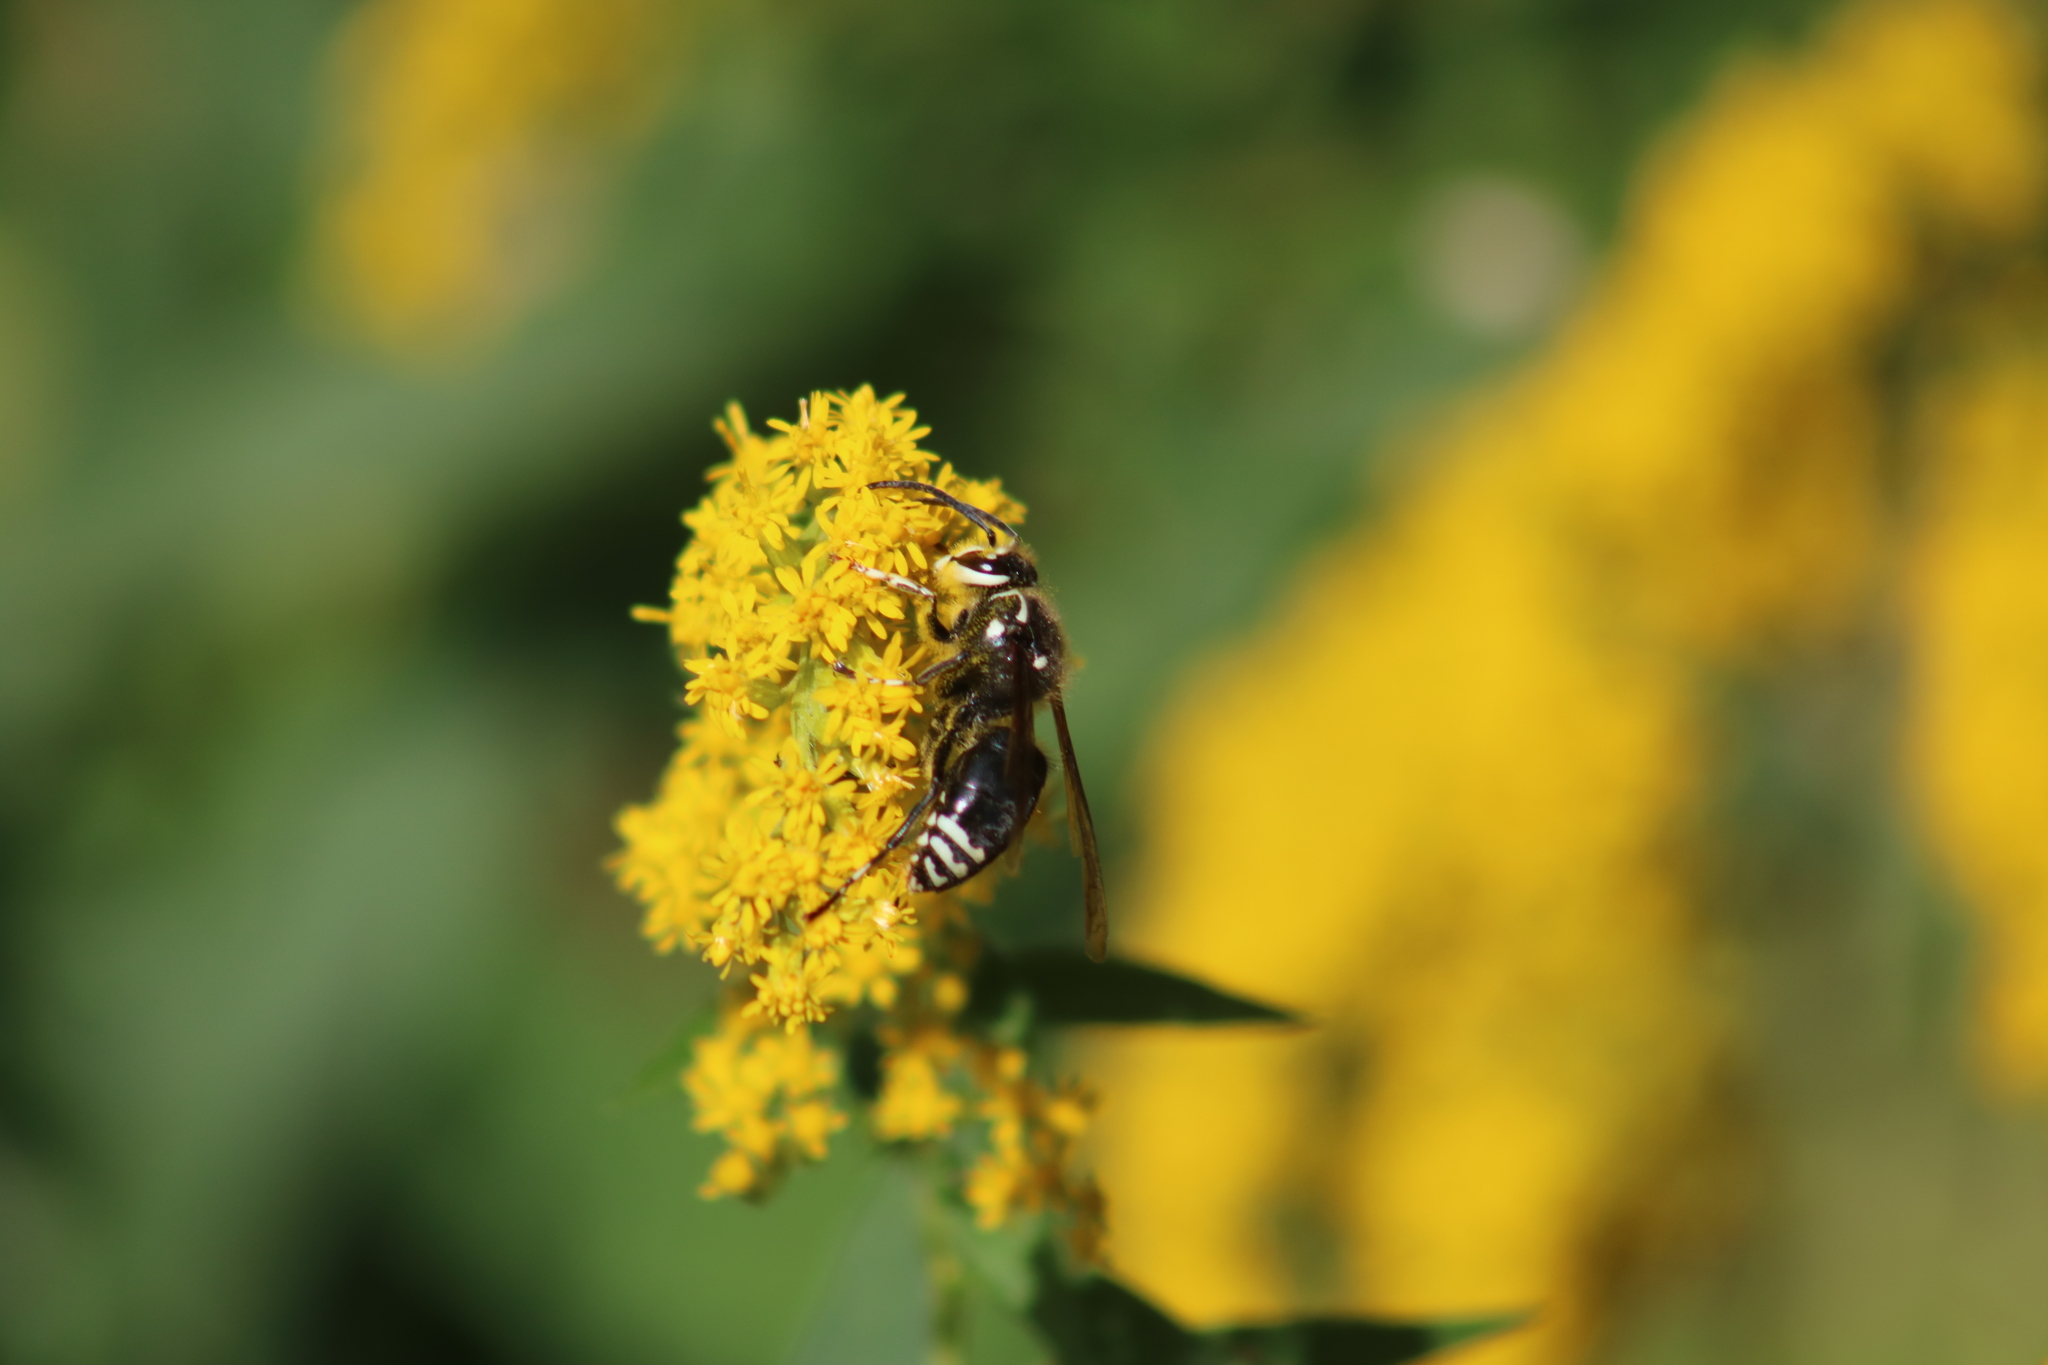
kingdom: Animalia
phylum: Arthropoda
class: Insecta
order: Hymenoptera
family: Vespidae
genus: Dolichovespula
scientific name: Dolichovespula maculata
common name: Bald-faced hornet
